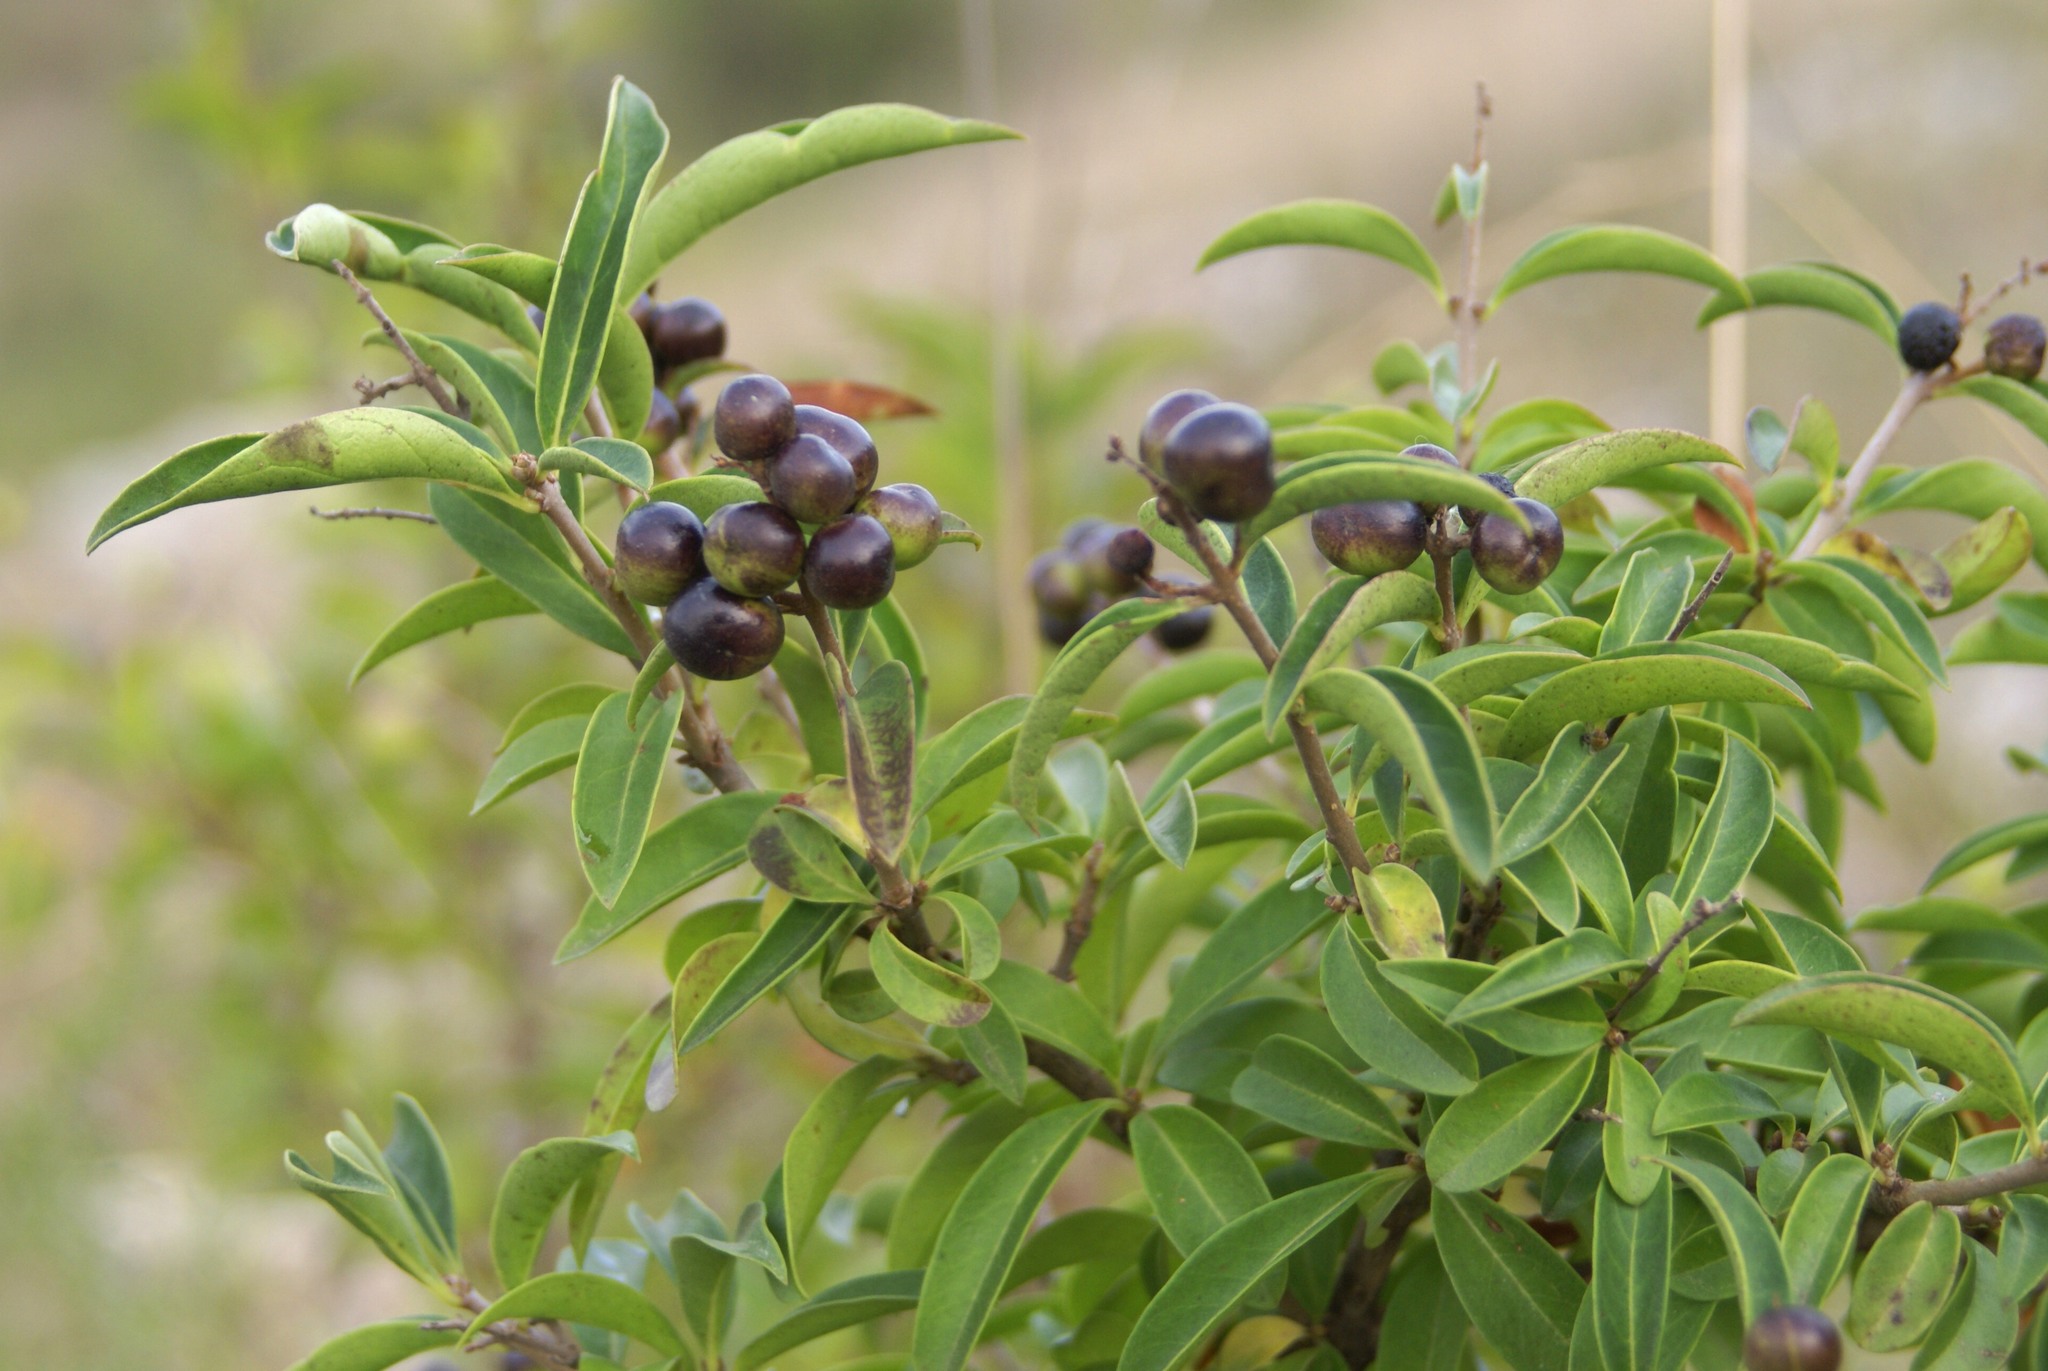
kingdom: Plantae
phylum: Tracheophyta
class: Magnoliopsida
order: Lamiales
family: Oleaceae
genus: Ligustrum
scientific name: Ligustrum vulgare
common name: Wild privet
